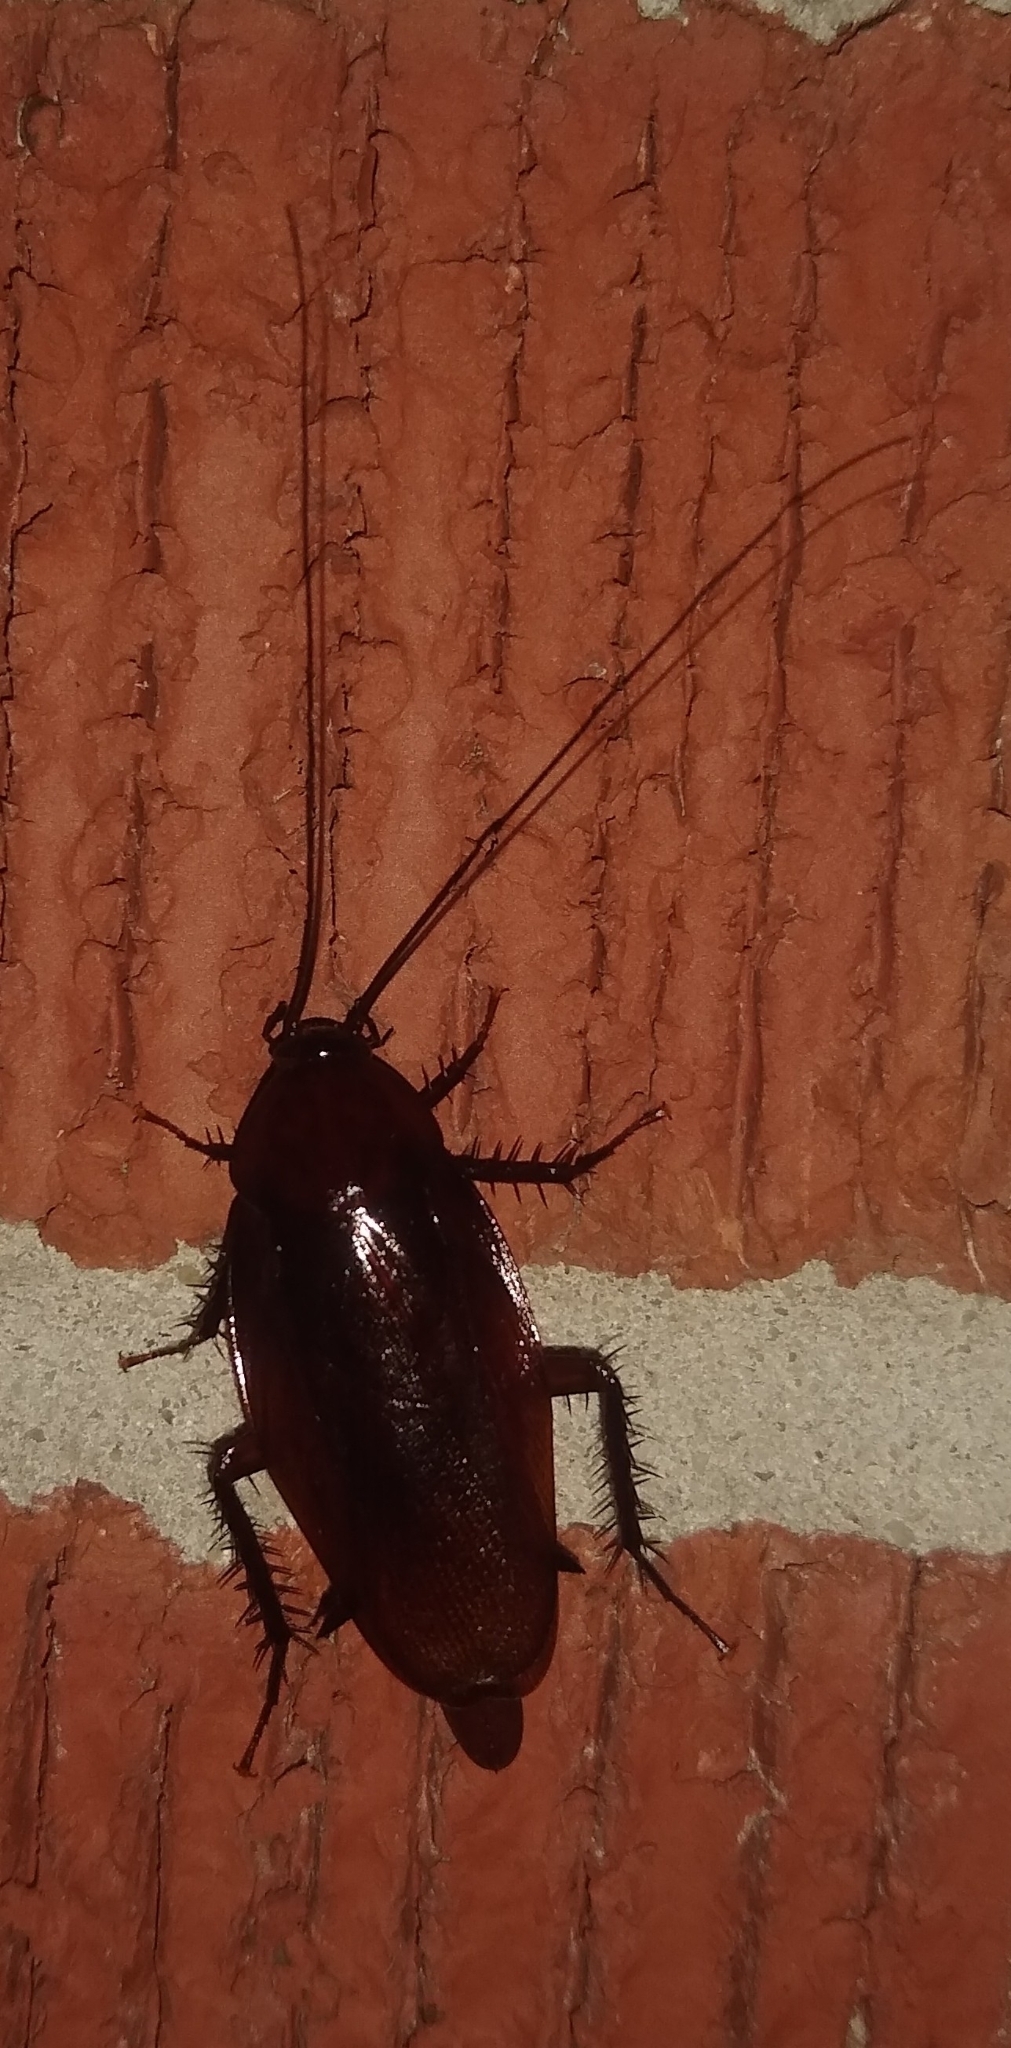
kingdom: Animalia
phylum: Arthropoda
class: Insecta
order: Blattodea
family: Blattidae
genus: Periplaneta
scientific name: Periplaneta fuliginosa
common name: Smokeybrown cockroad
